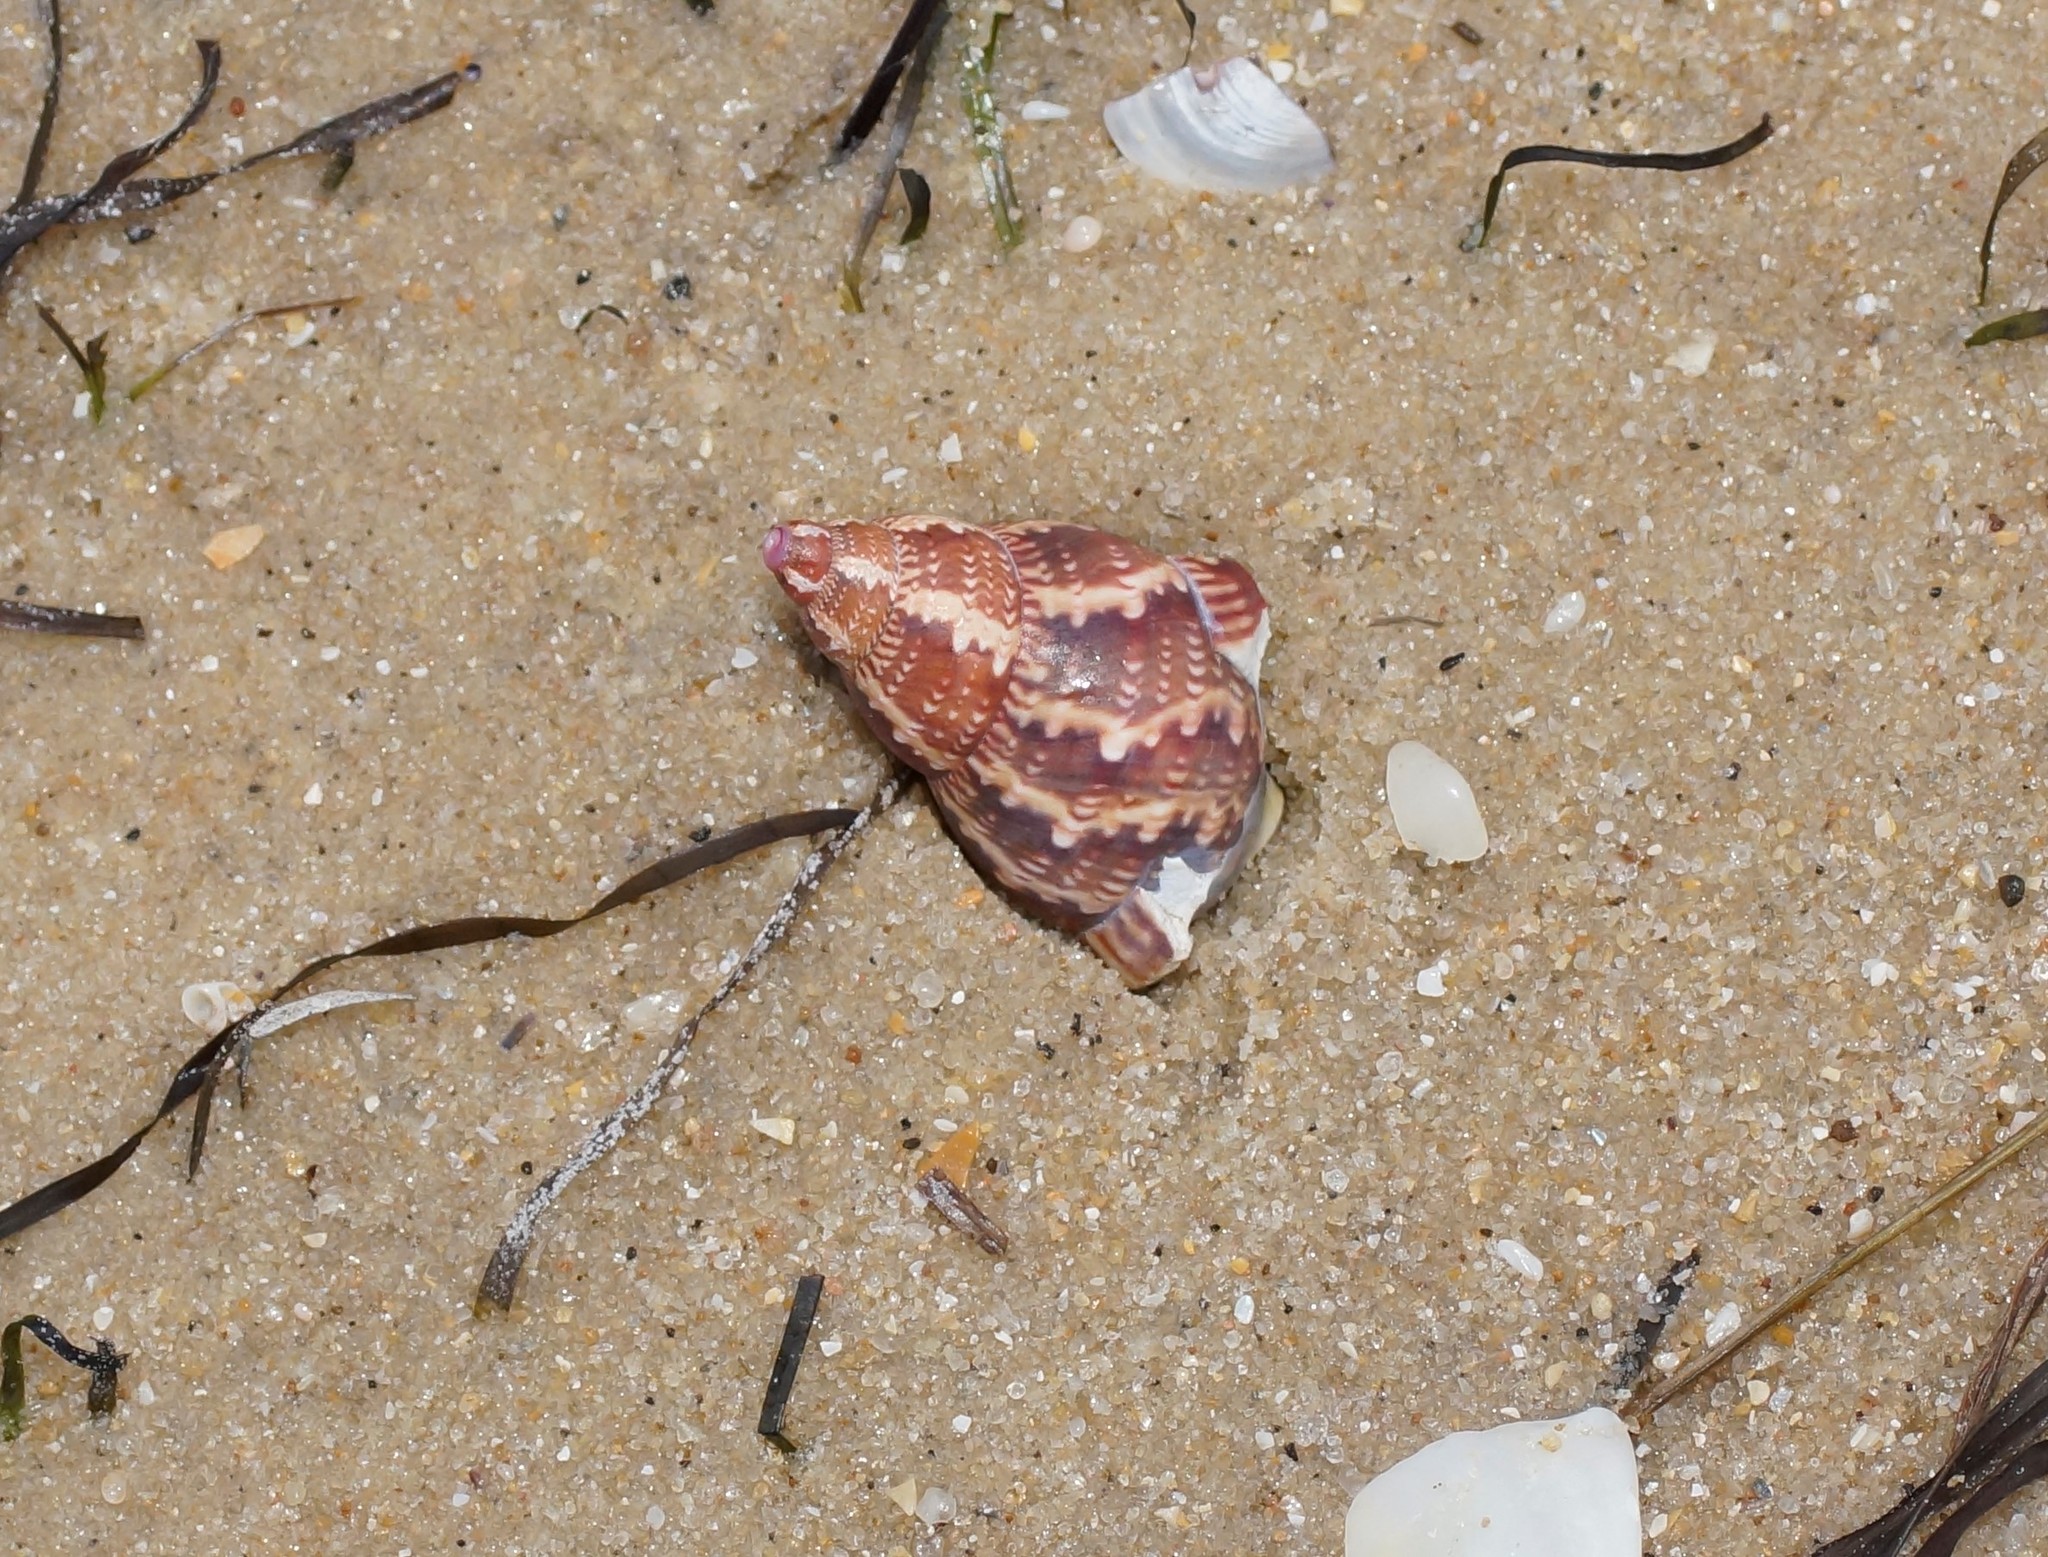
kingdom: Animalia
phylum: Mollusca
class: Gastropoda
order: Trochida
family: Phasianellidae
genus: Phasianella
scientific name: Phasianella australis
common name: Painted lady
